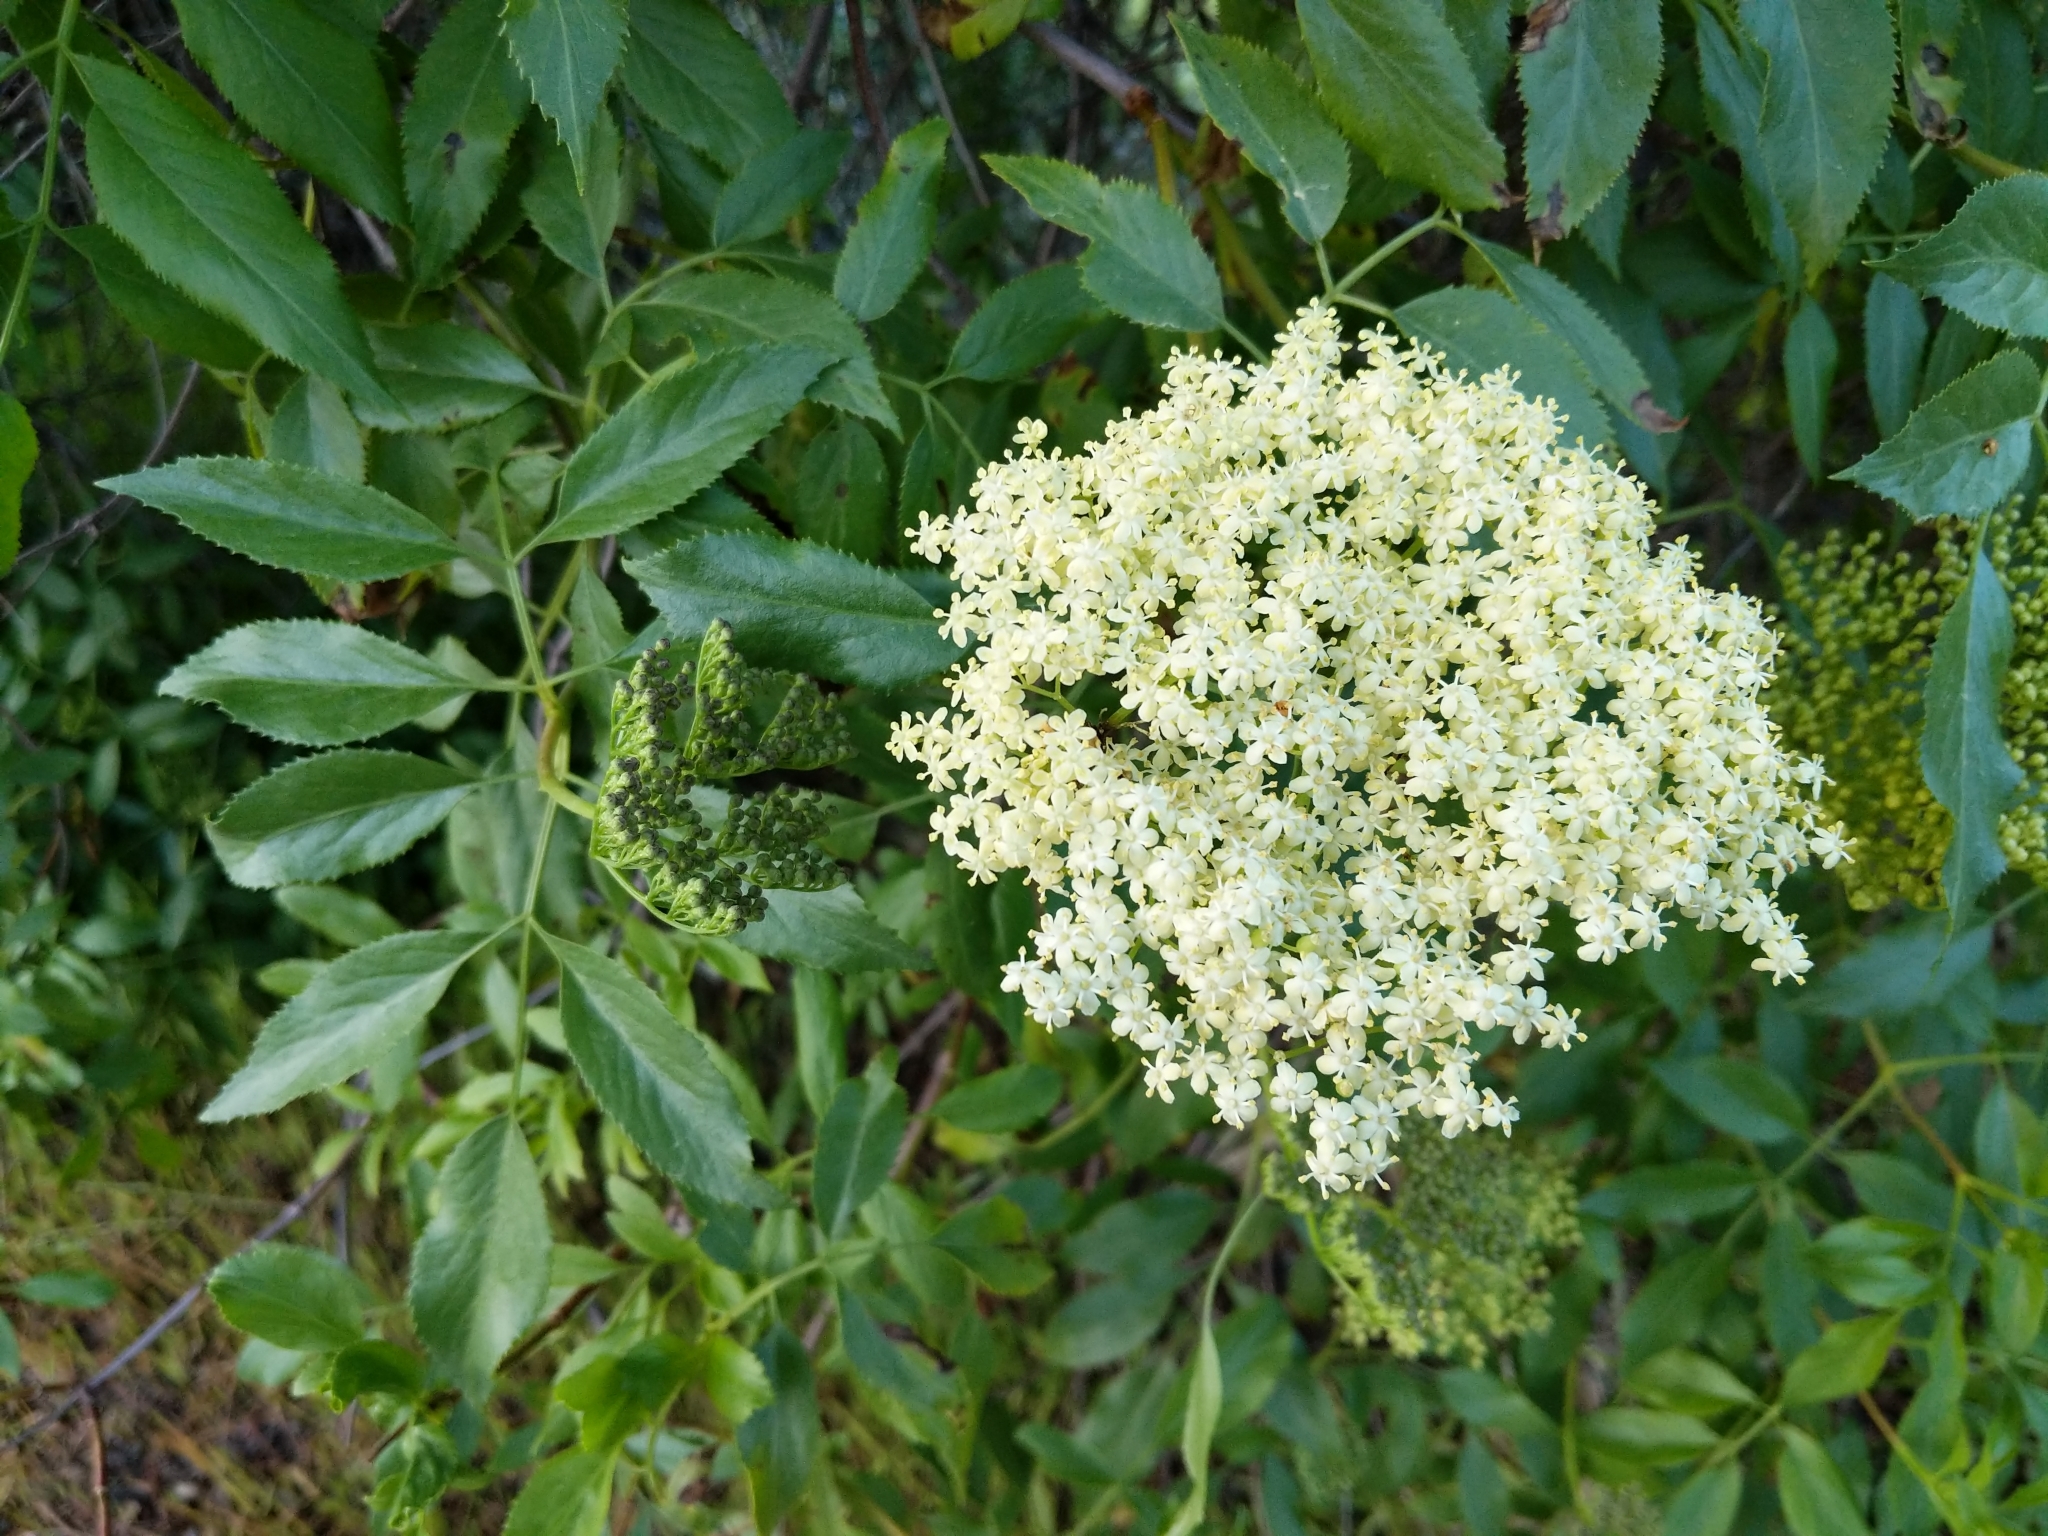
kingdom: Plantae
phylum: Tracheophyta
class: Magnoliopsida
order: Dipsacales
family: Viburnaceae
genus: Sambucus
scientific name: Sambucus cerulea
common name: Blue elder
